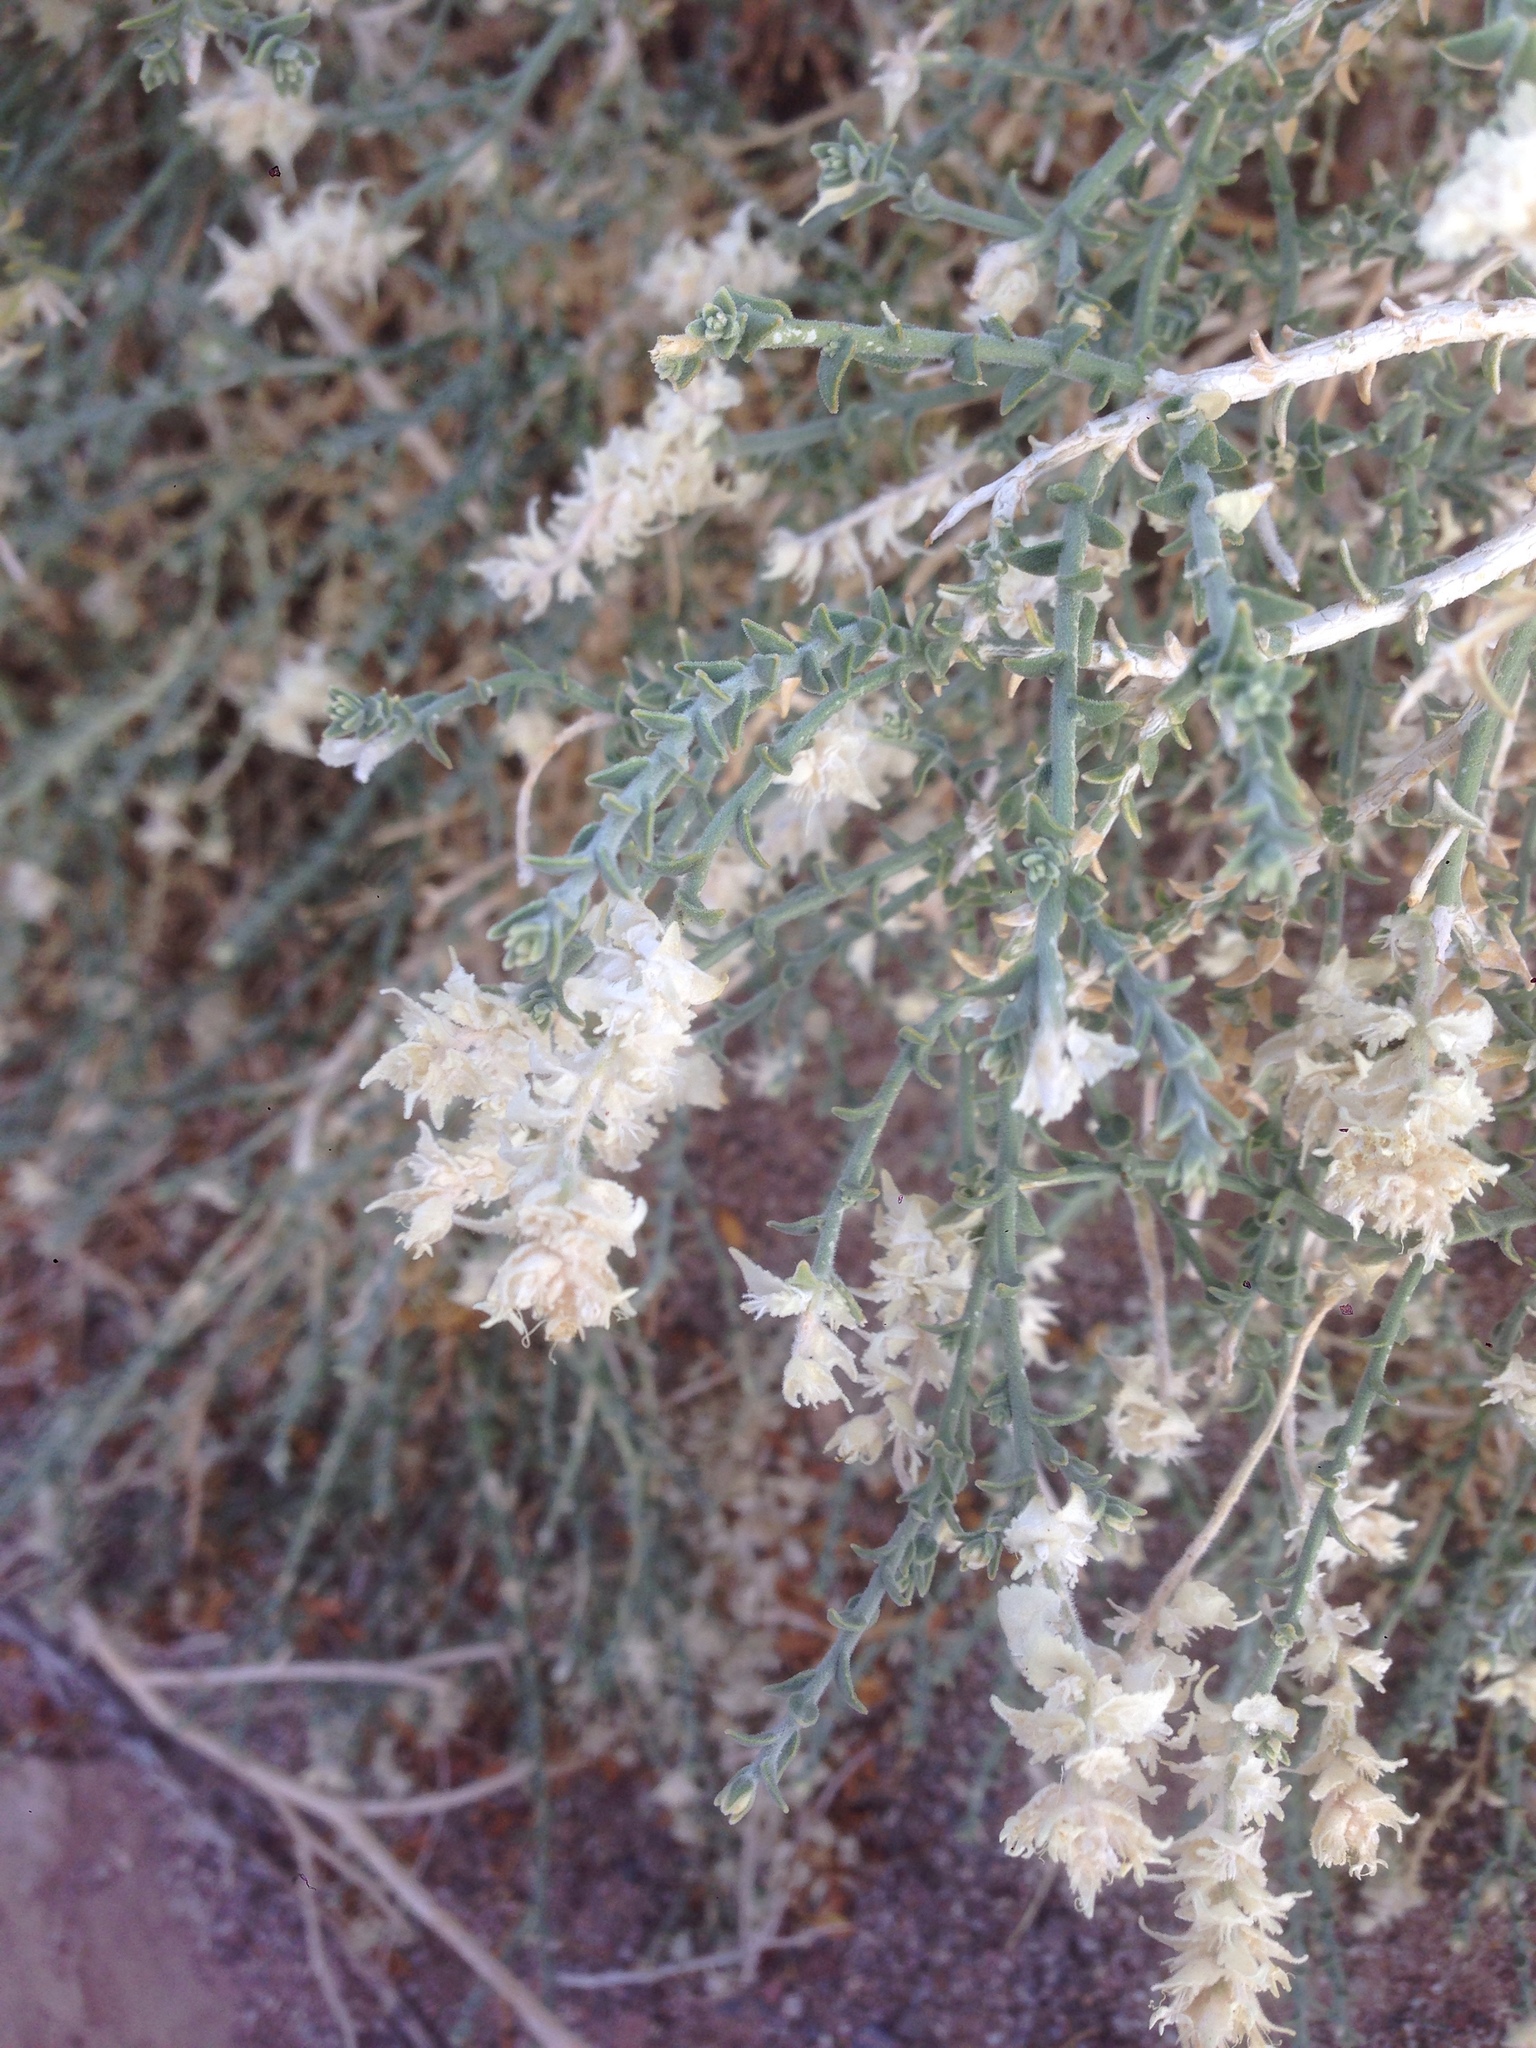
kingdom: Plantae
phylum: Tracheophyta
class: Magnoliopsida
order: Cornales
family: Loasaceae
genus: Petalonyx
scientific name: Petalonyx thurberi
